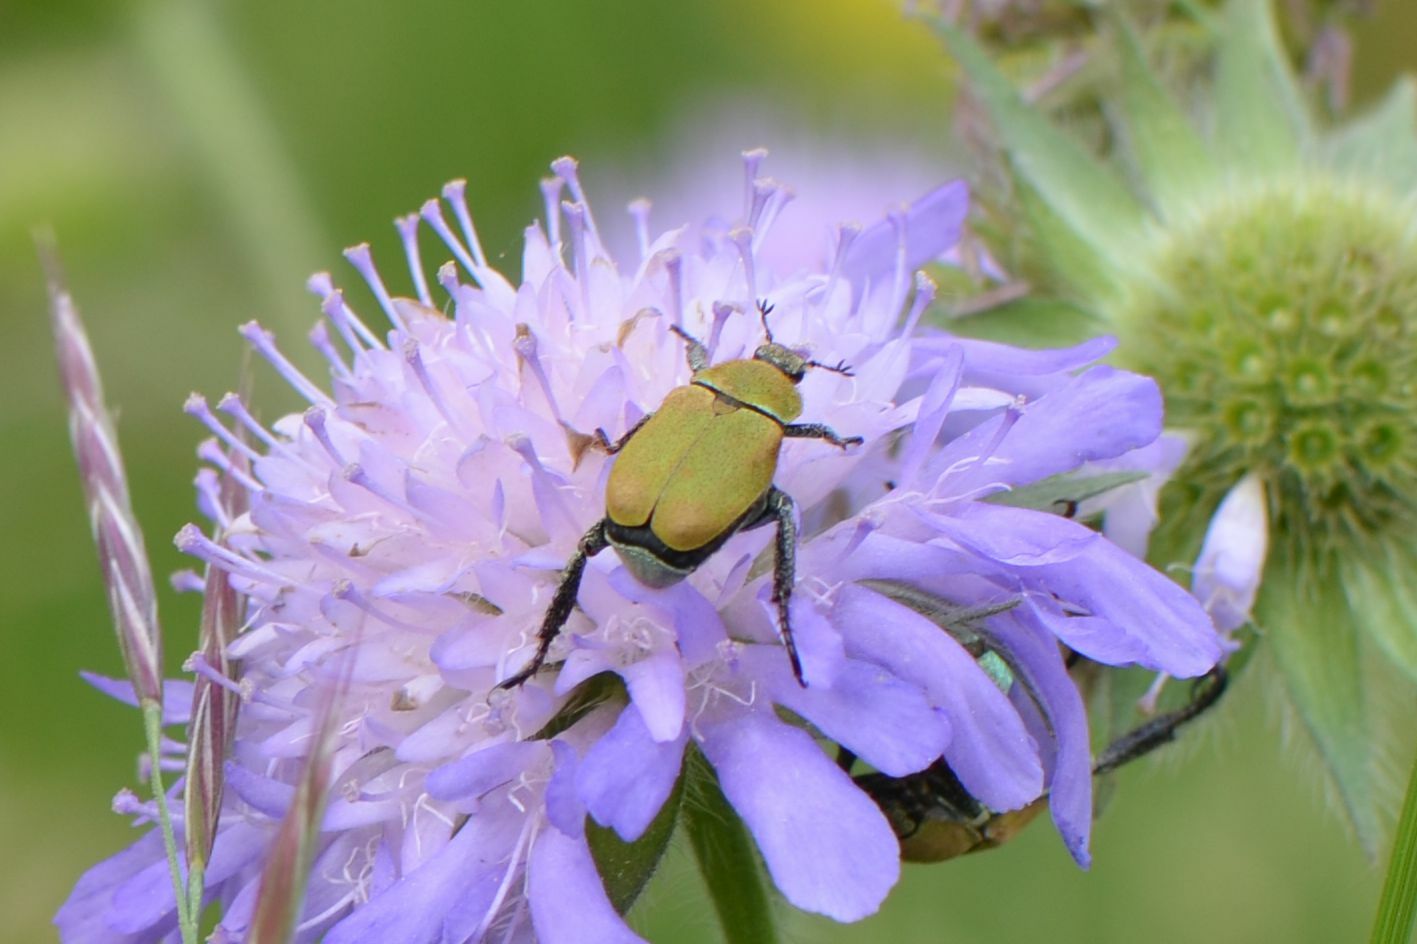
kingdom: Animalia
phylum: Arthropoda
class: Insecta
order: Coleoptera
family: Scarabaeidae
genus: Hoplia
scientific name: Hoplia argentea
